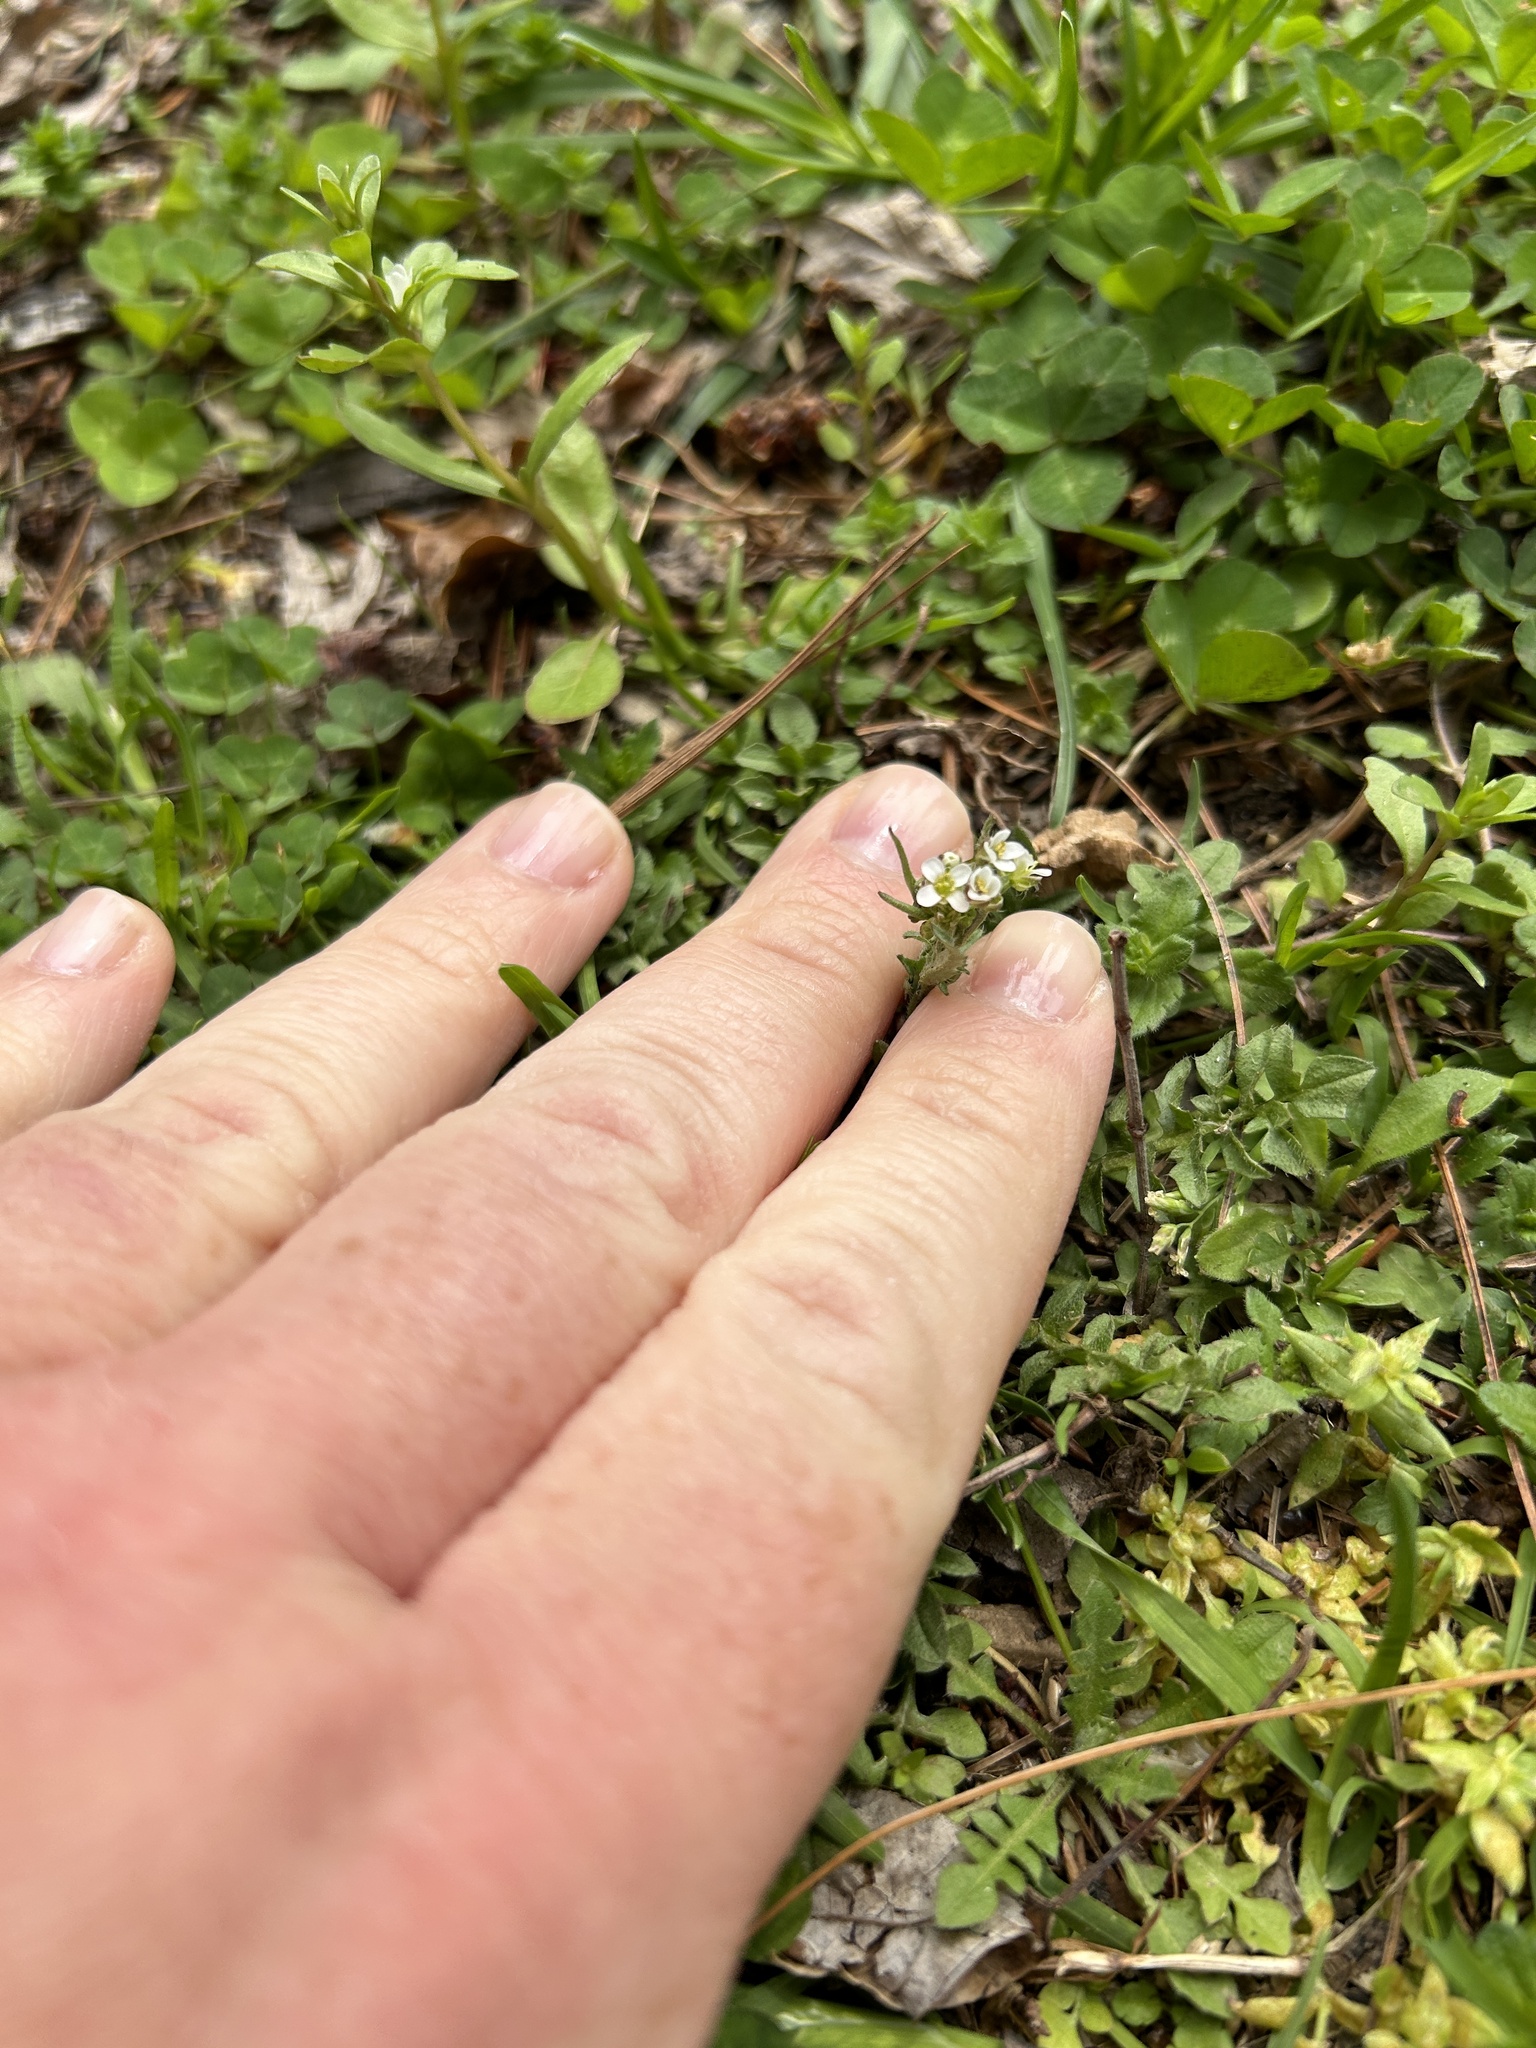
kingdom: Plantae
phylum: Tracheophyta
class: Magnoliopsida
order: Brassicales
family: Brassicaceae
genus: Capsella
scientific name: Capsella bursa-pastoris
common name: Shepherd's purse
